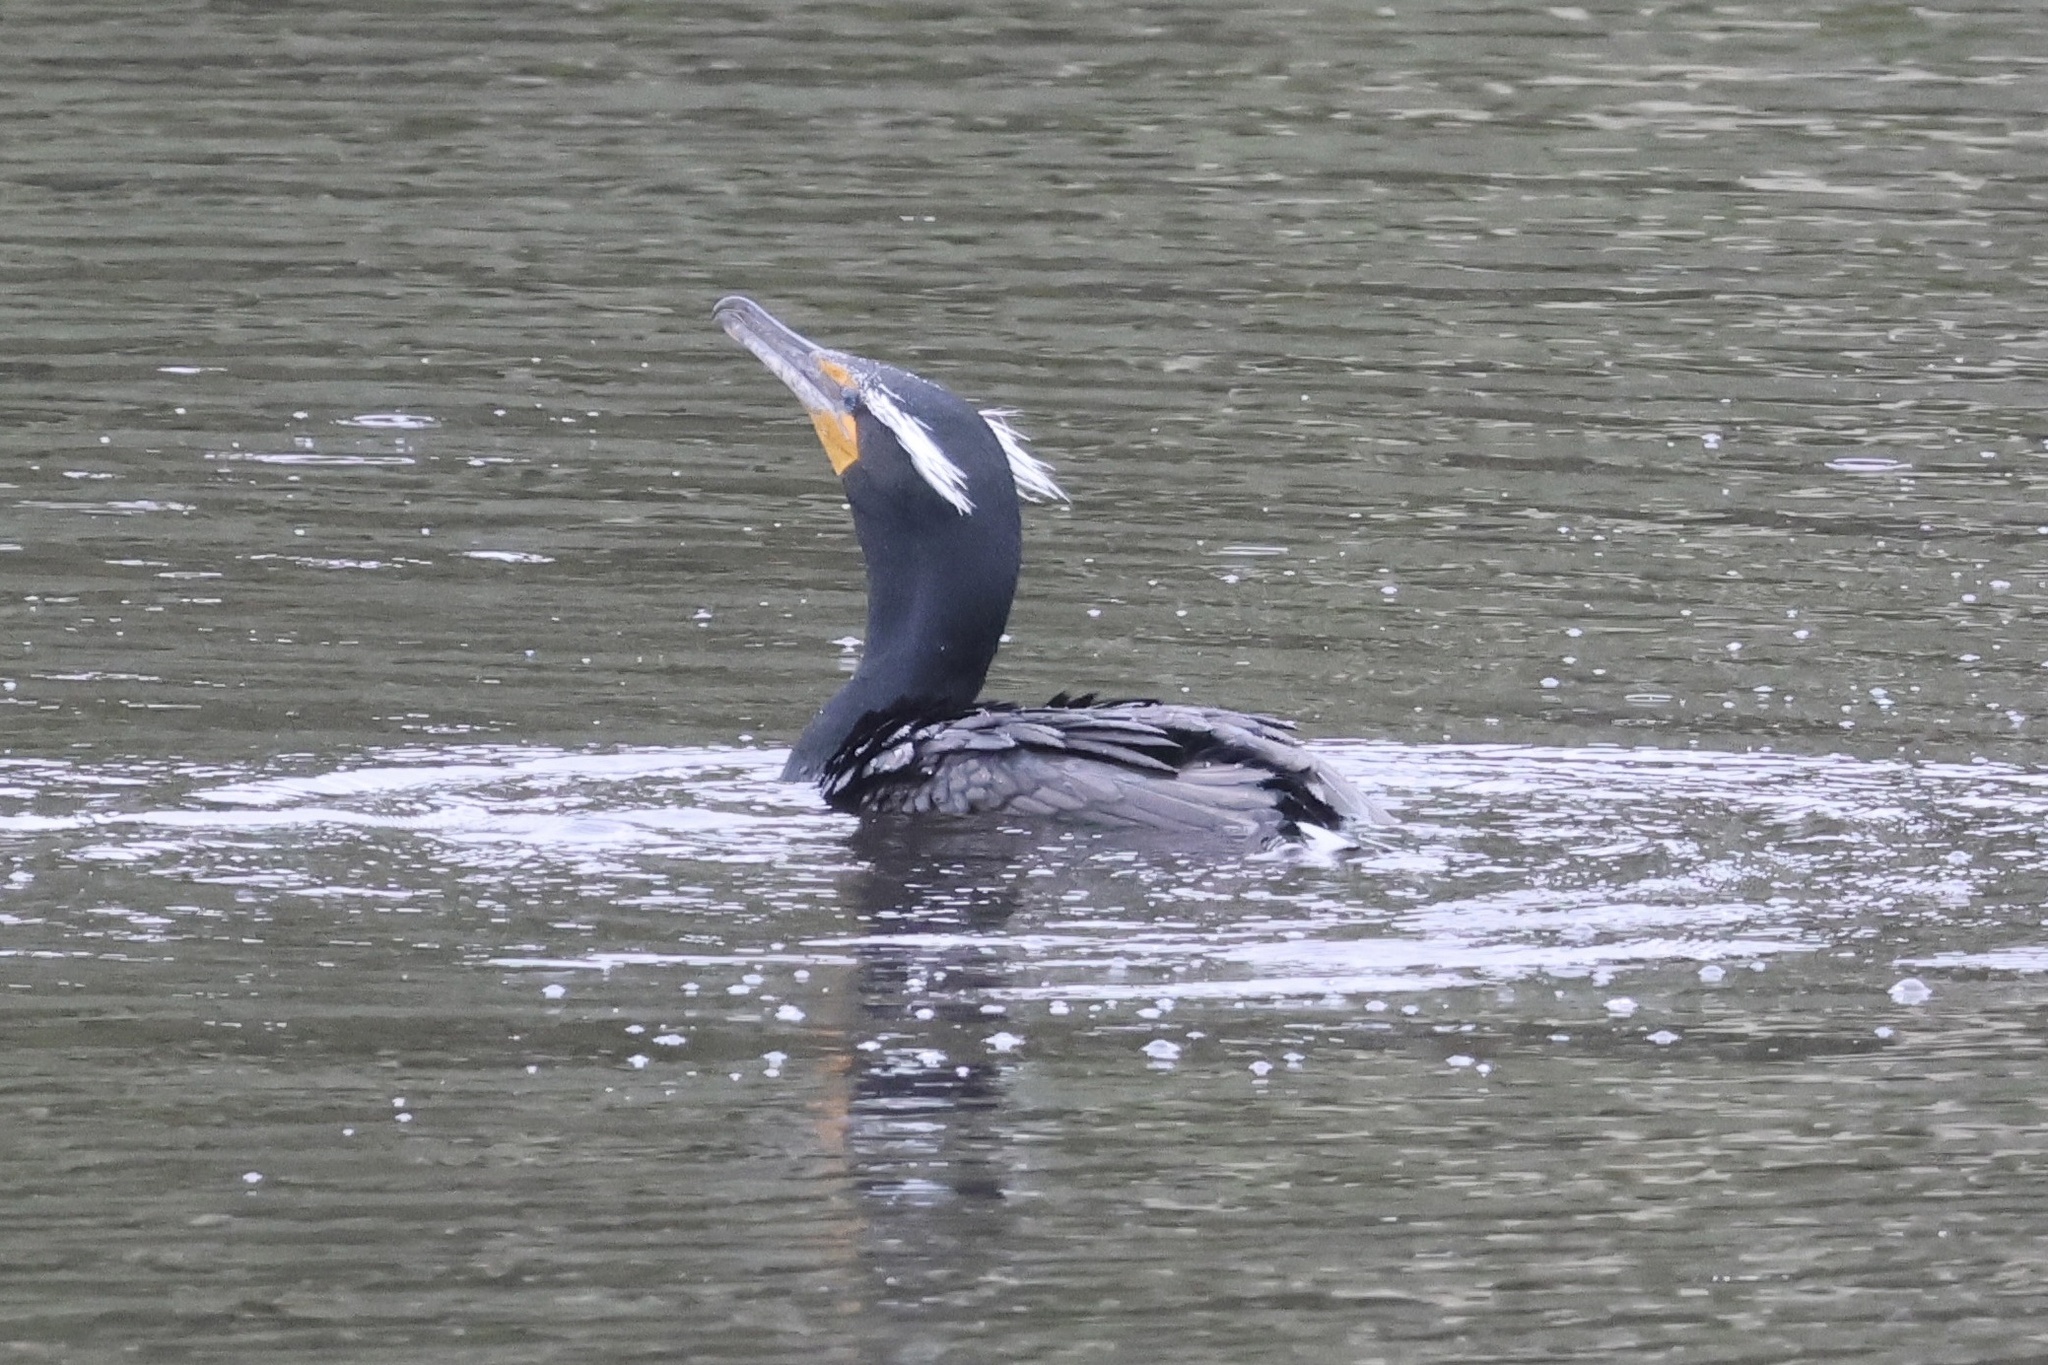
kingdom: Animalia
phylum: Chordata
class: Aves
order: Suliformes
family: Phalacrocoracidae
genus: Phalacrocorax
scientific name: Phalacrocorax auritus
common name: Double-crested cormorant
